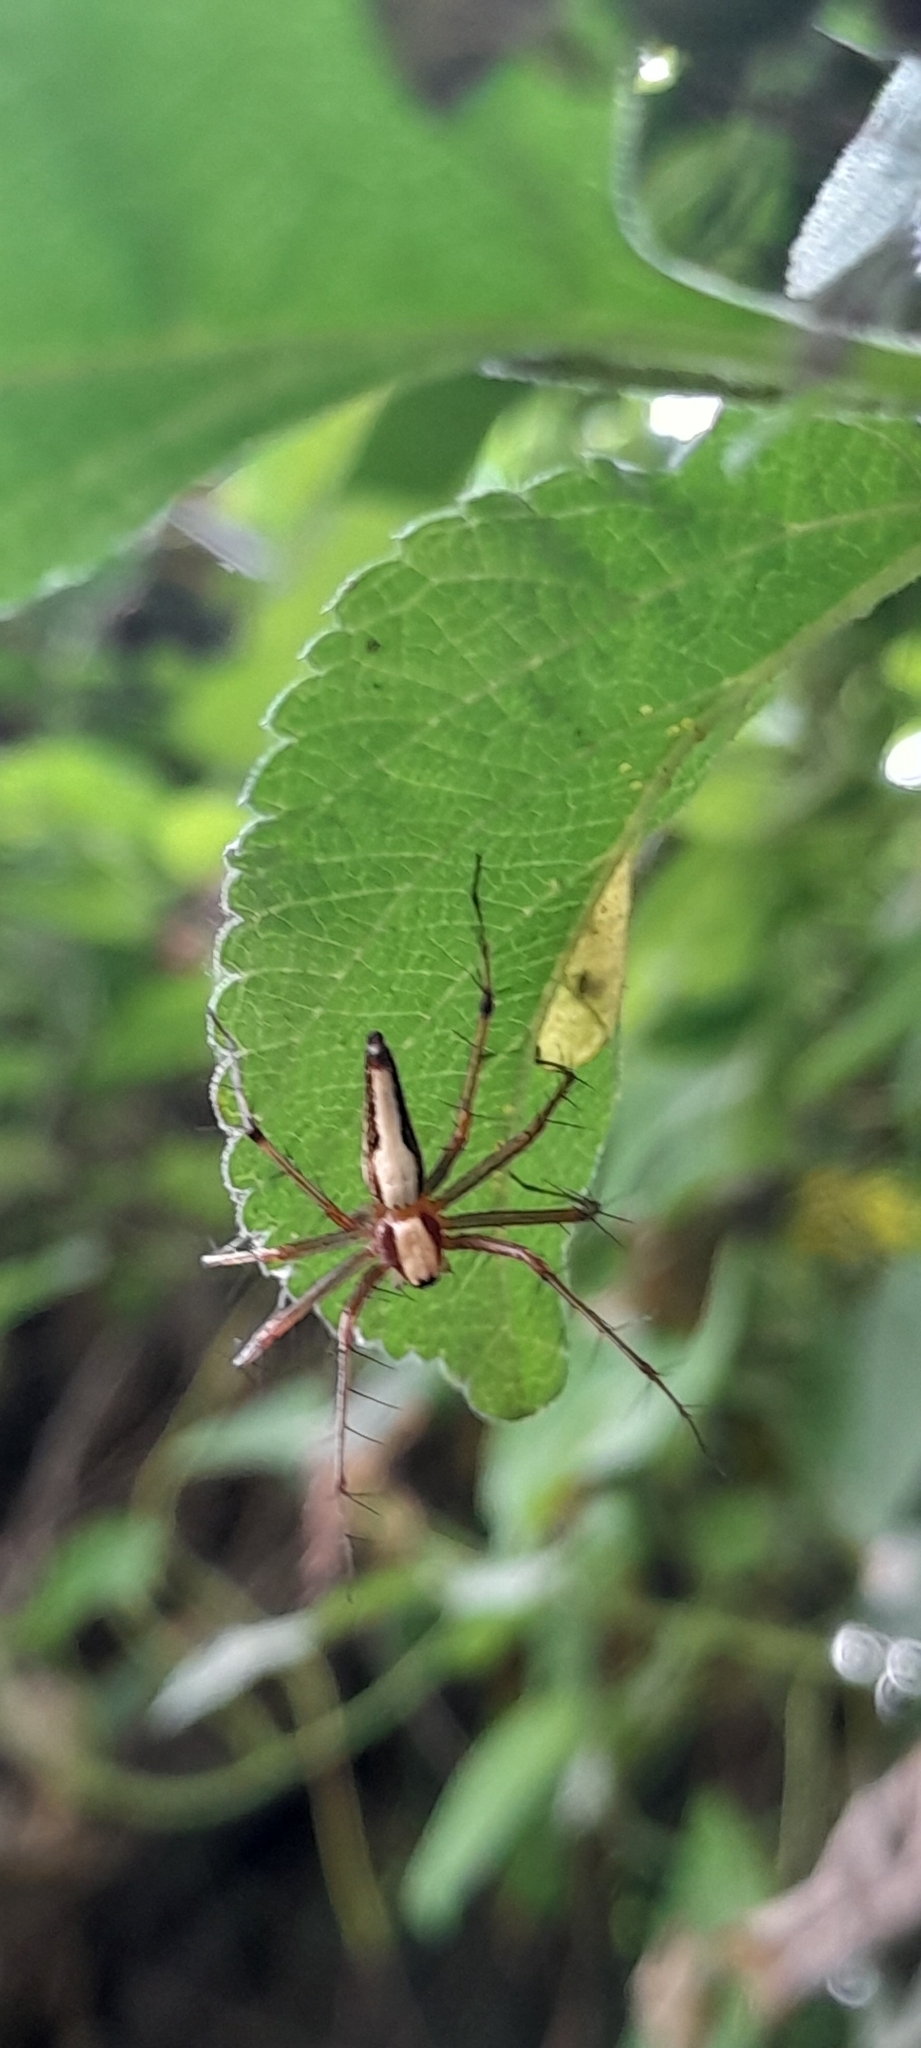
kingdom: Animalia
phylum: Arthropoda
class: Arachnida
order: Araneae
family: Oxyopidae
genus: Oxyopes
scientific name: Oxyopes shweta
